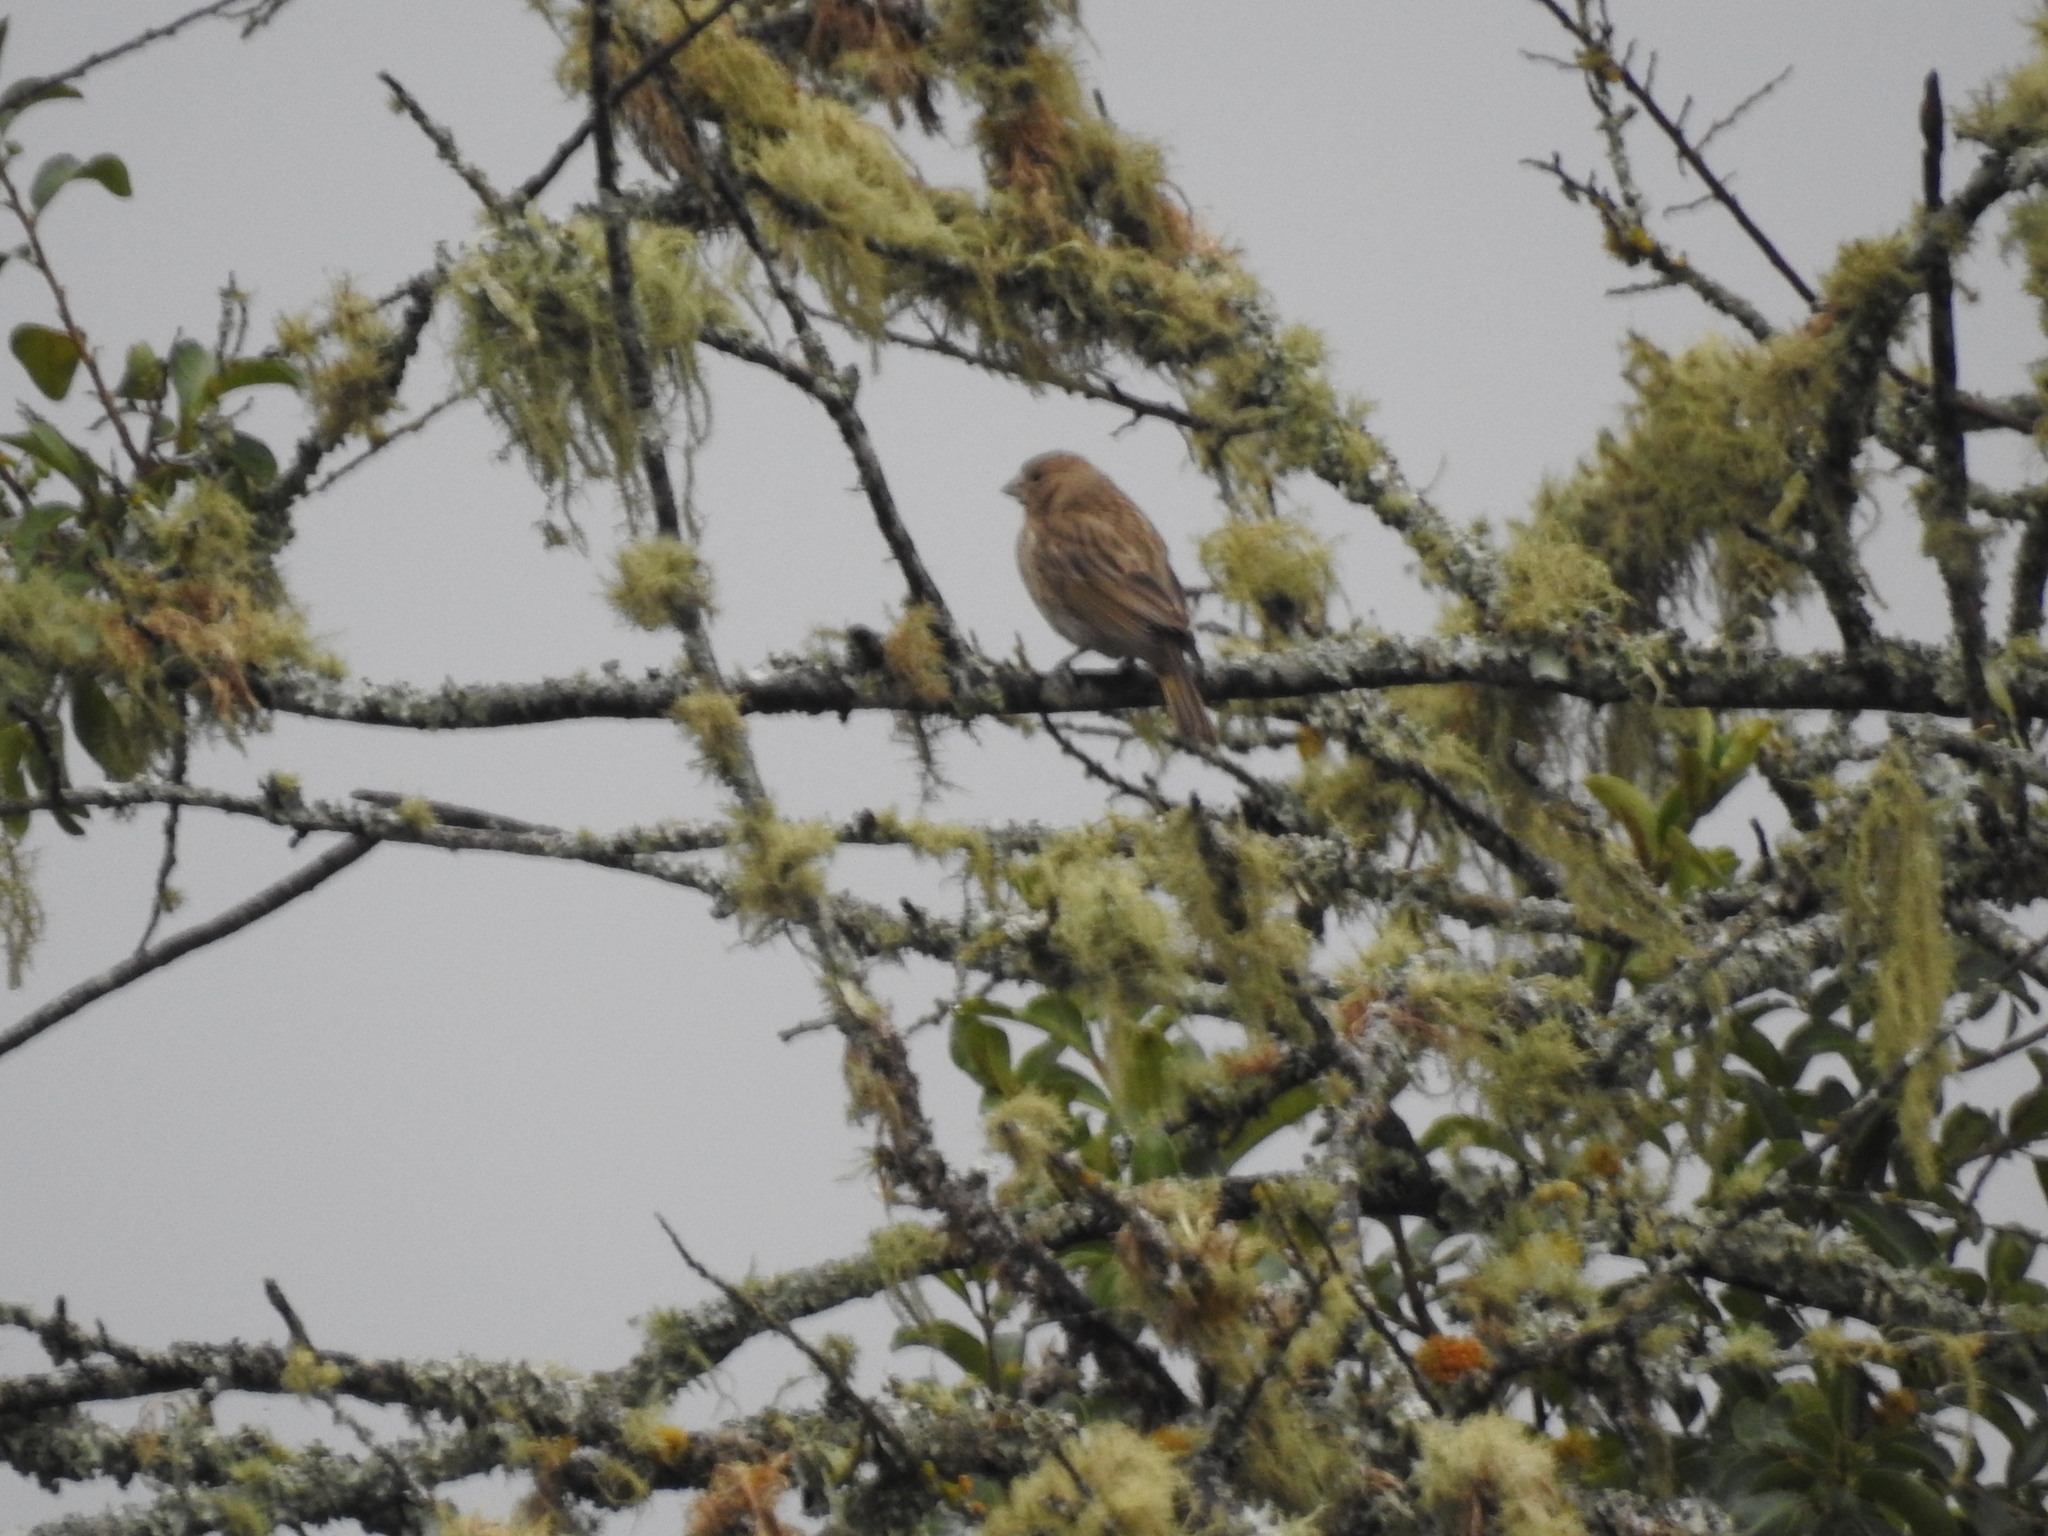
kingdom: Animalia
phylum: Chordata
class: Aves
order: Passeriformes
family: Thraupidae
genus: Sicalis
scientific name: Sicalis flaveola
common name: Saffron finch
